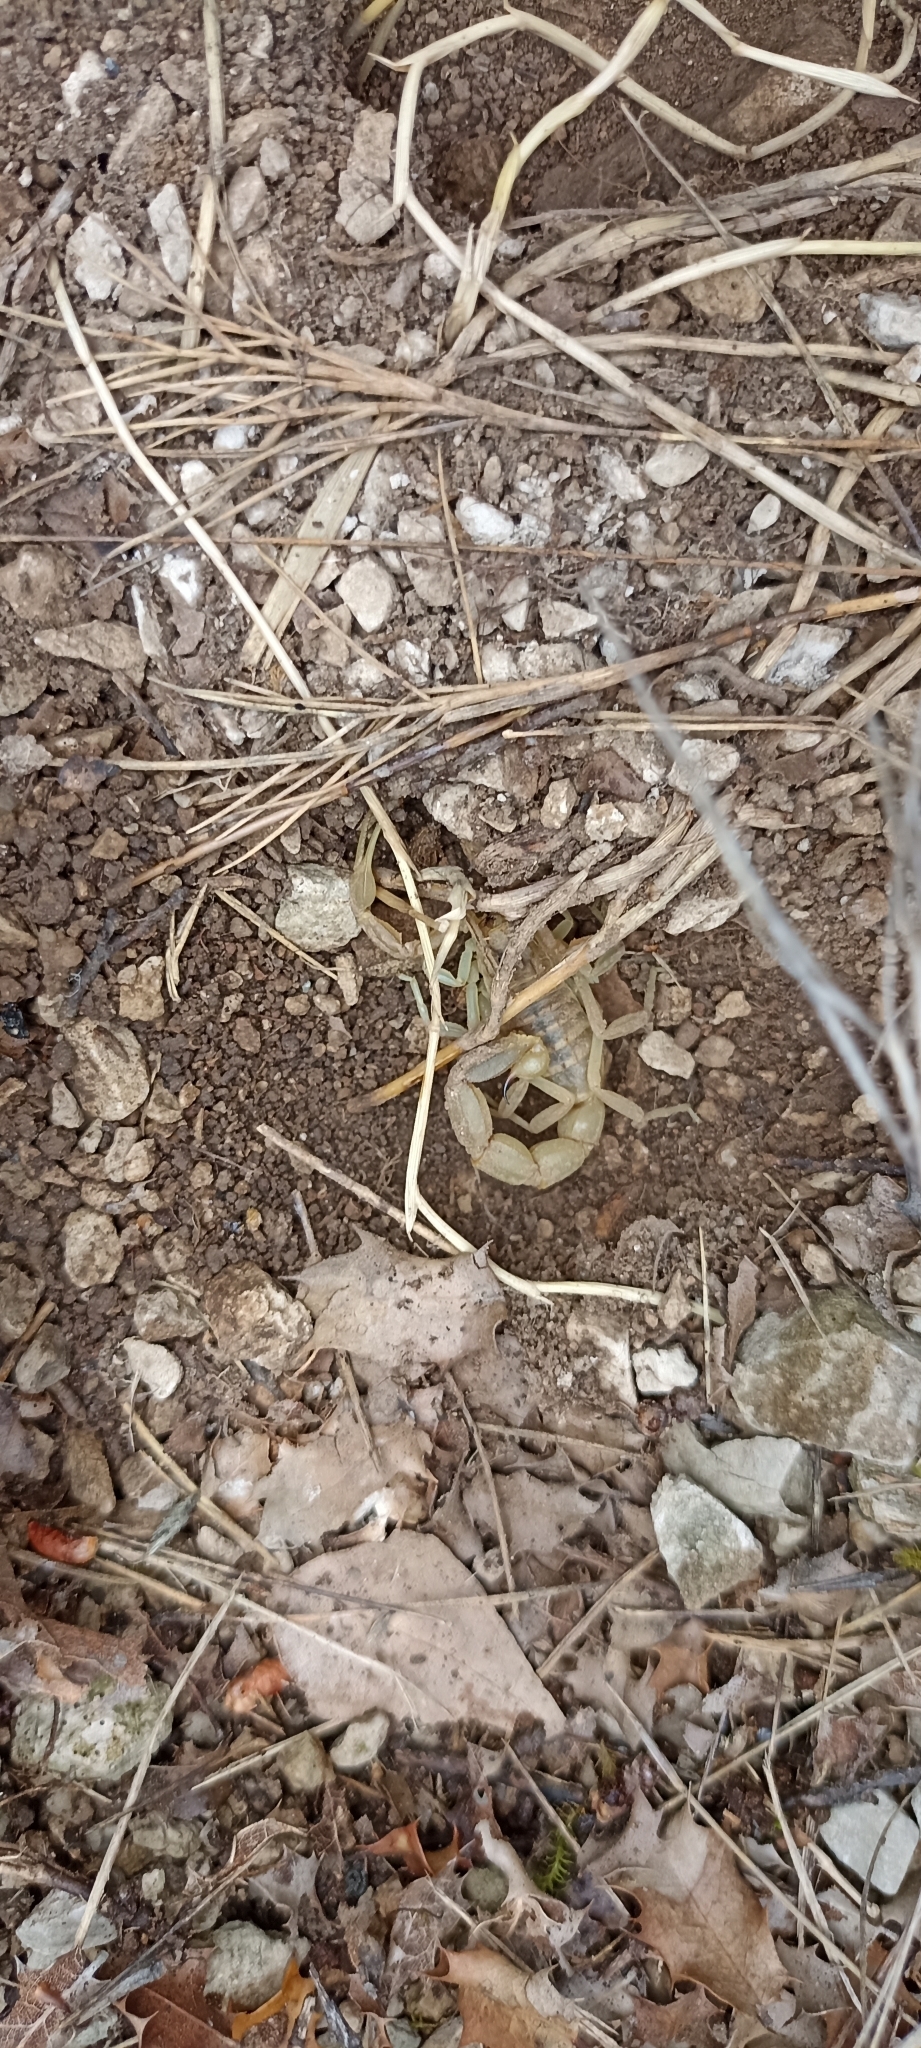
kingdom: Animalia
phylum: Arthropoda
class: Arachnida
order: Scorpiones
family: Buthidae
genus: Buthus
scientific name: Buthus occitanus
